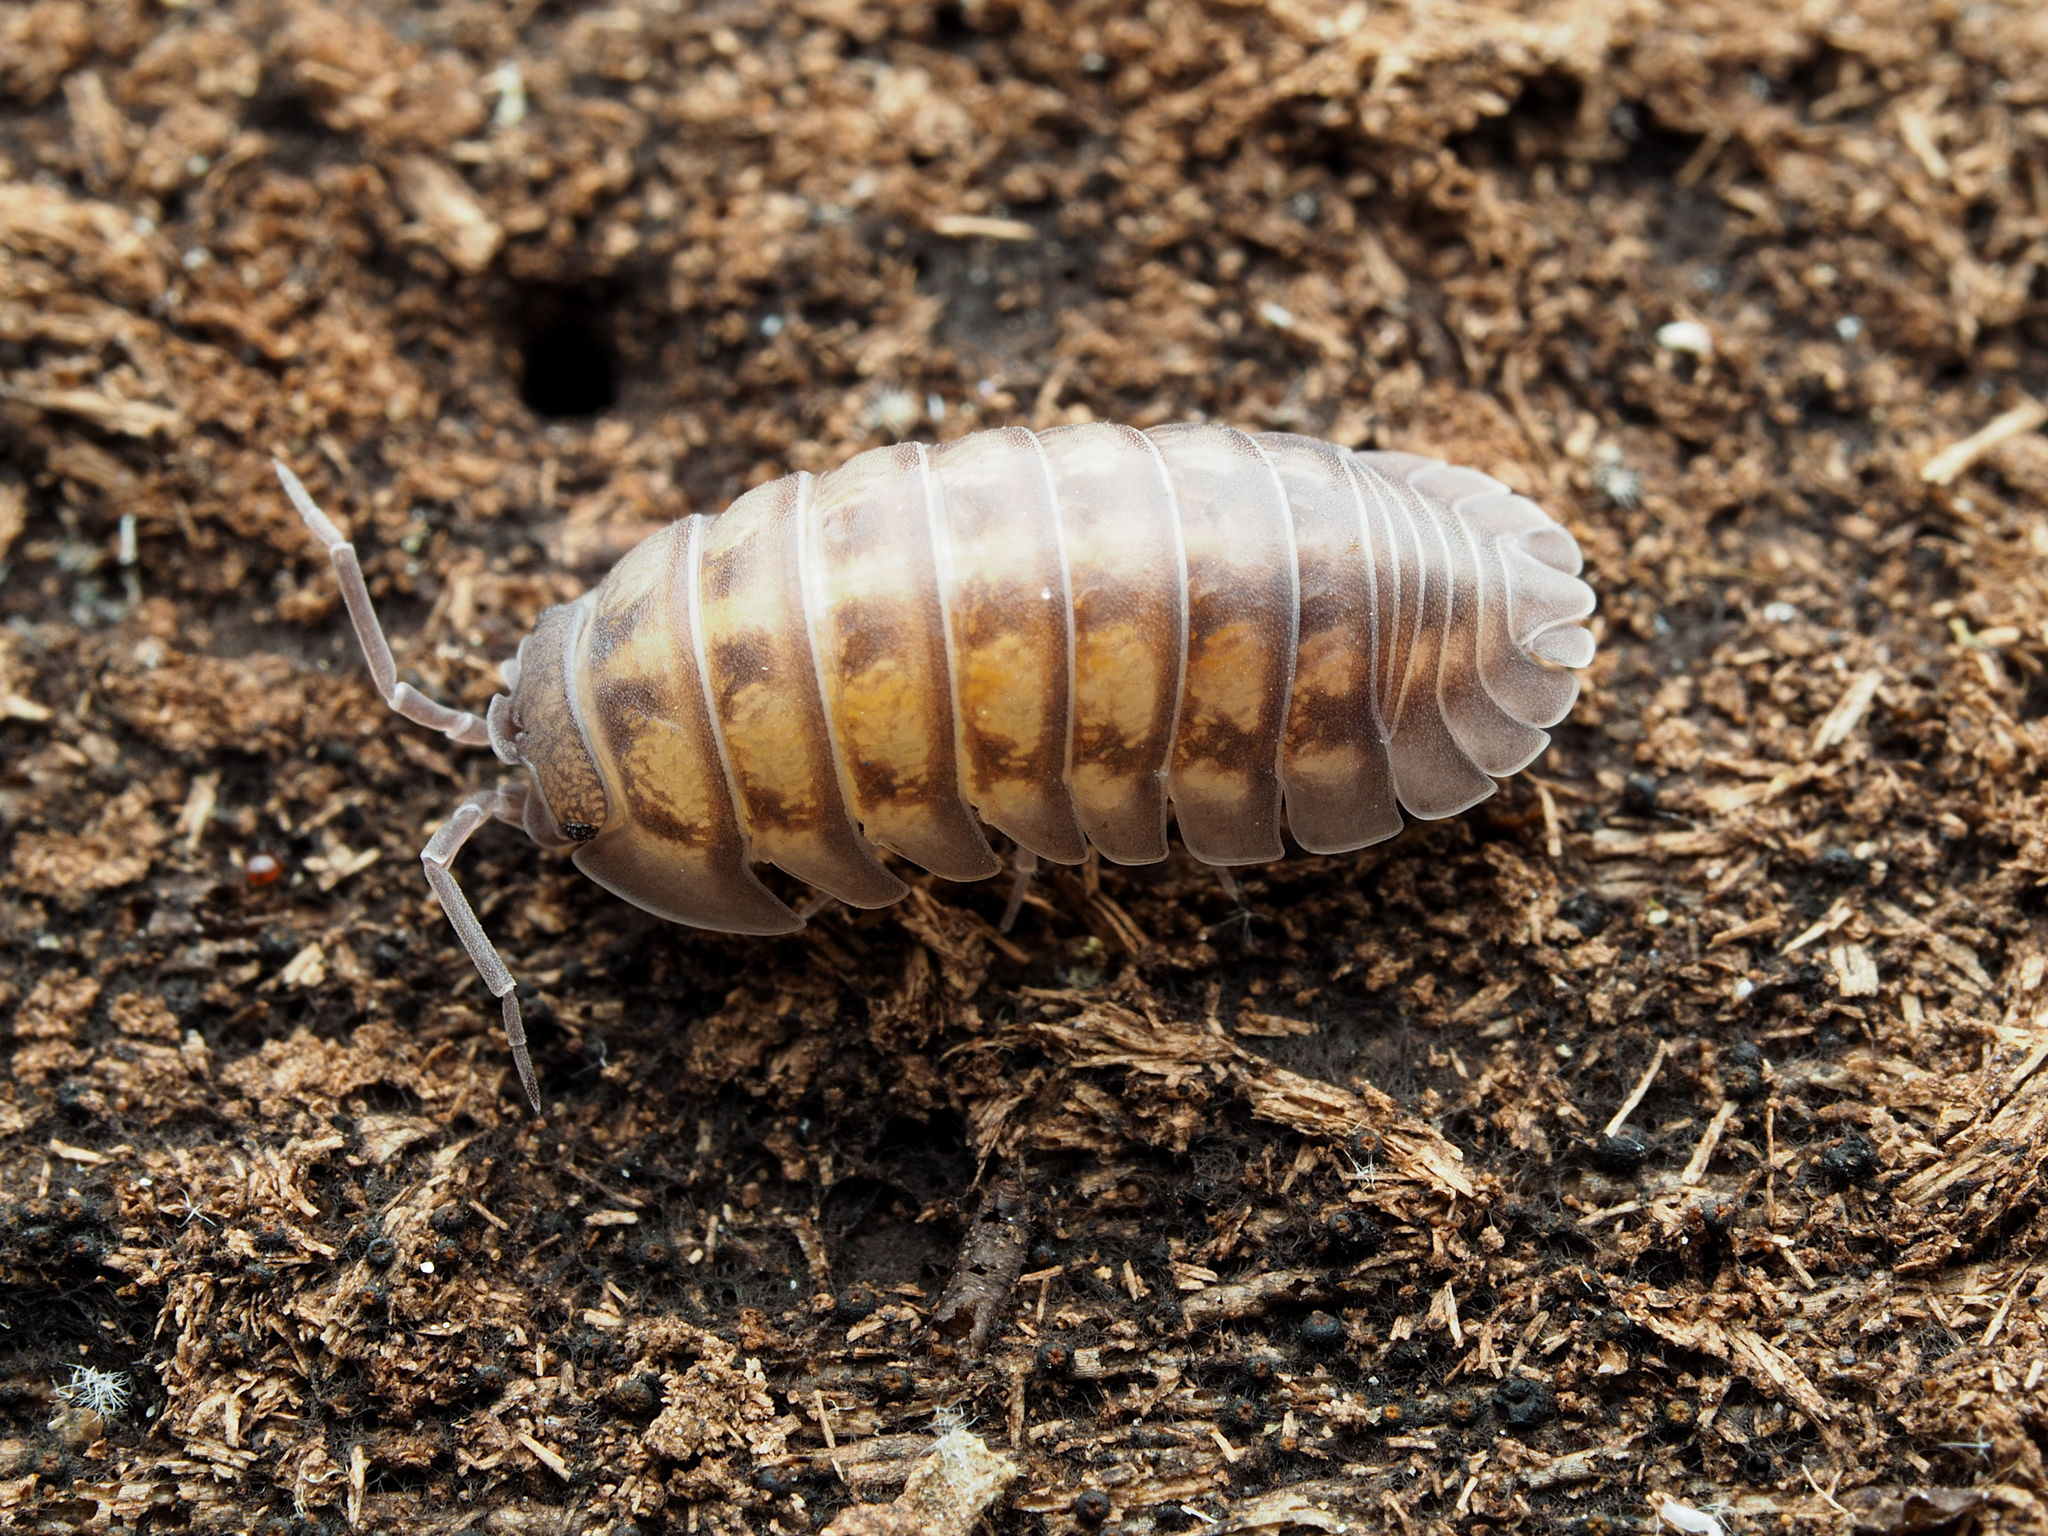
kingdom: Animalia
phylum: Arthropoda
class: Malacostraca
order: Isopoda
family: Armadillidiidae
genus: Armadillidium
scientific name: Armadillidium nasatum
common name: Isopod
